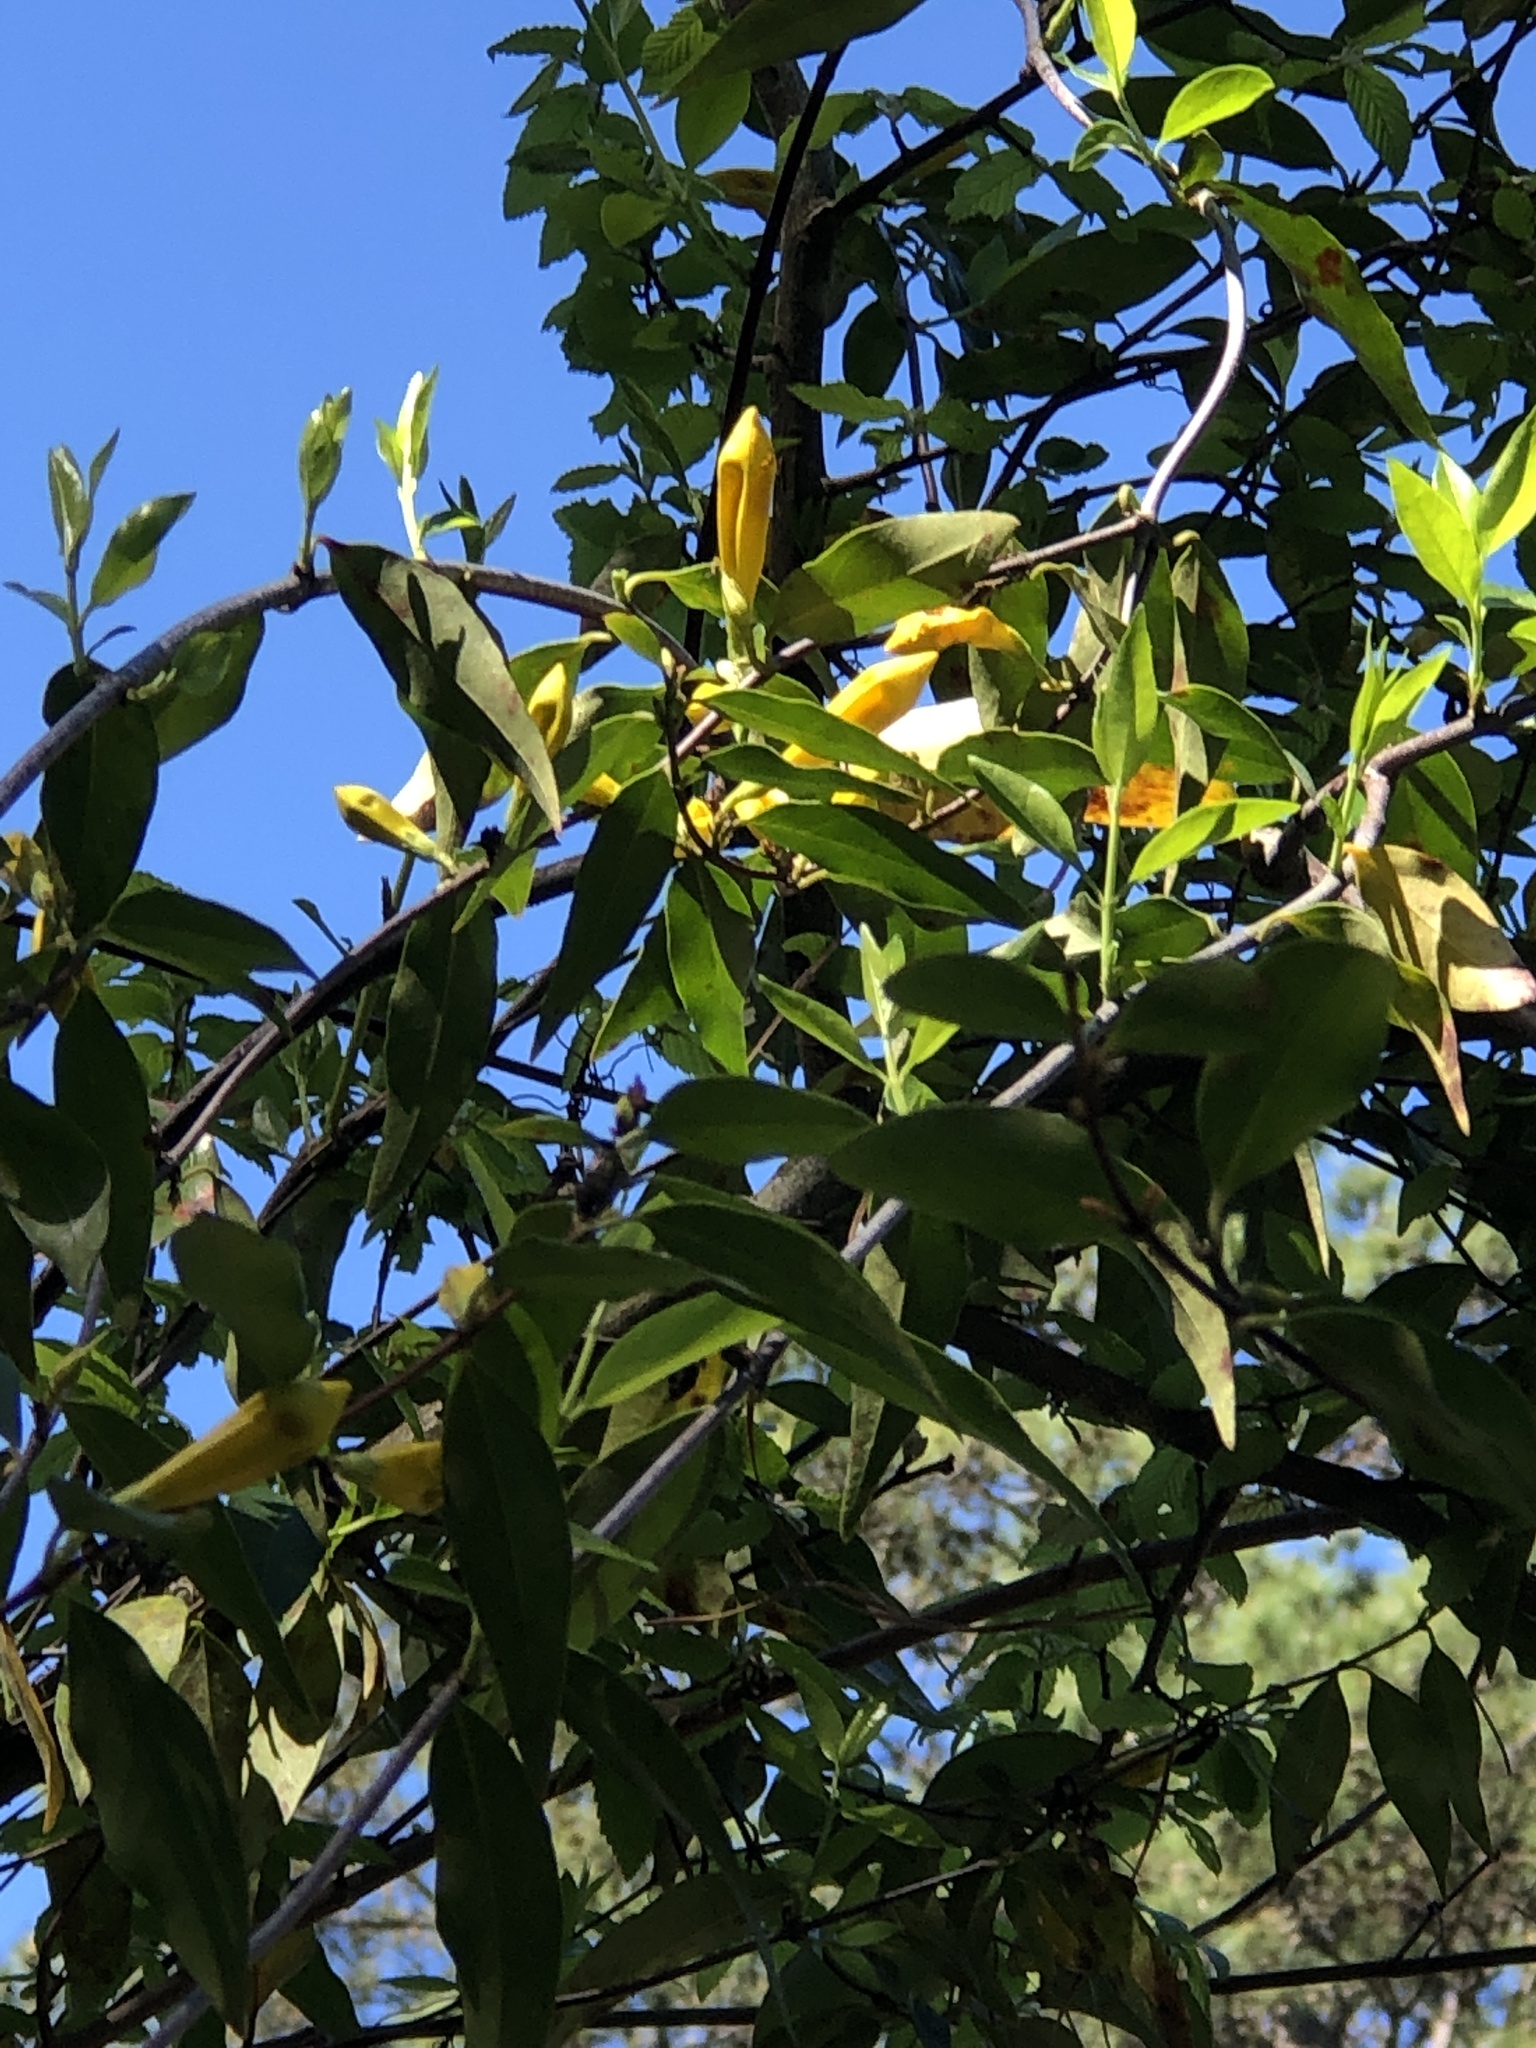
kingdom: Plantae
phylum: Tracheophyta
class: Magnoliopsida
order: Gentianales
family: Gelsemiaceae
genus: Gelsemium
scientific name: Gelsemium sempervirens
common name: Carolina-jasmine
